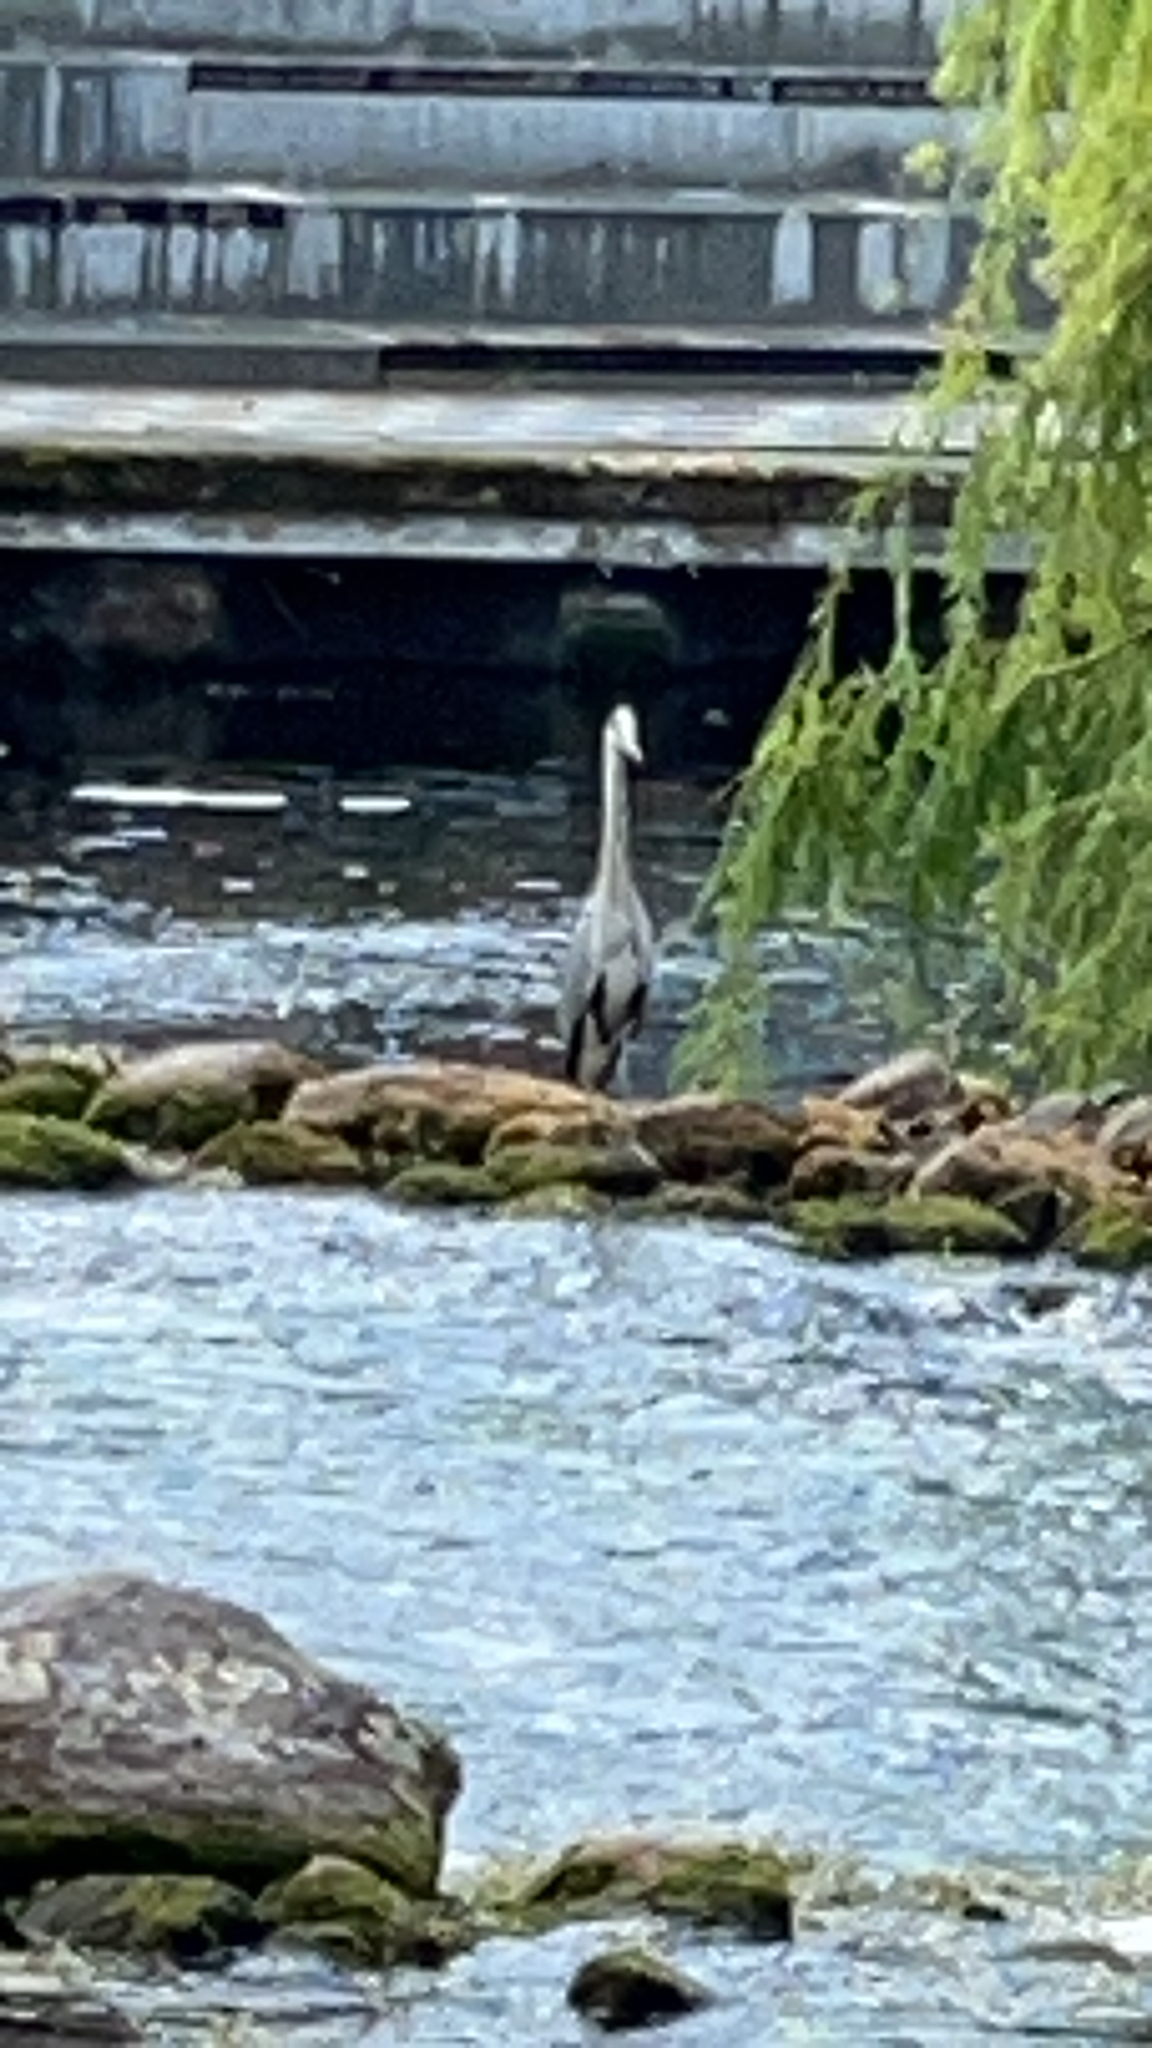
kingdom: Animalia
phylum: Chordata
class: Aves
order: Pelecaniformes
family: Ardeidae
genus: Ardea
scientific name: Ardea cinerea
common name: Grey heron
